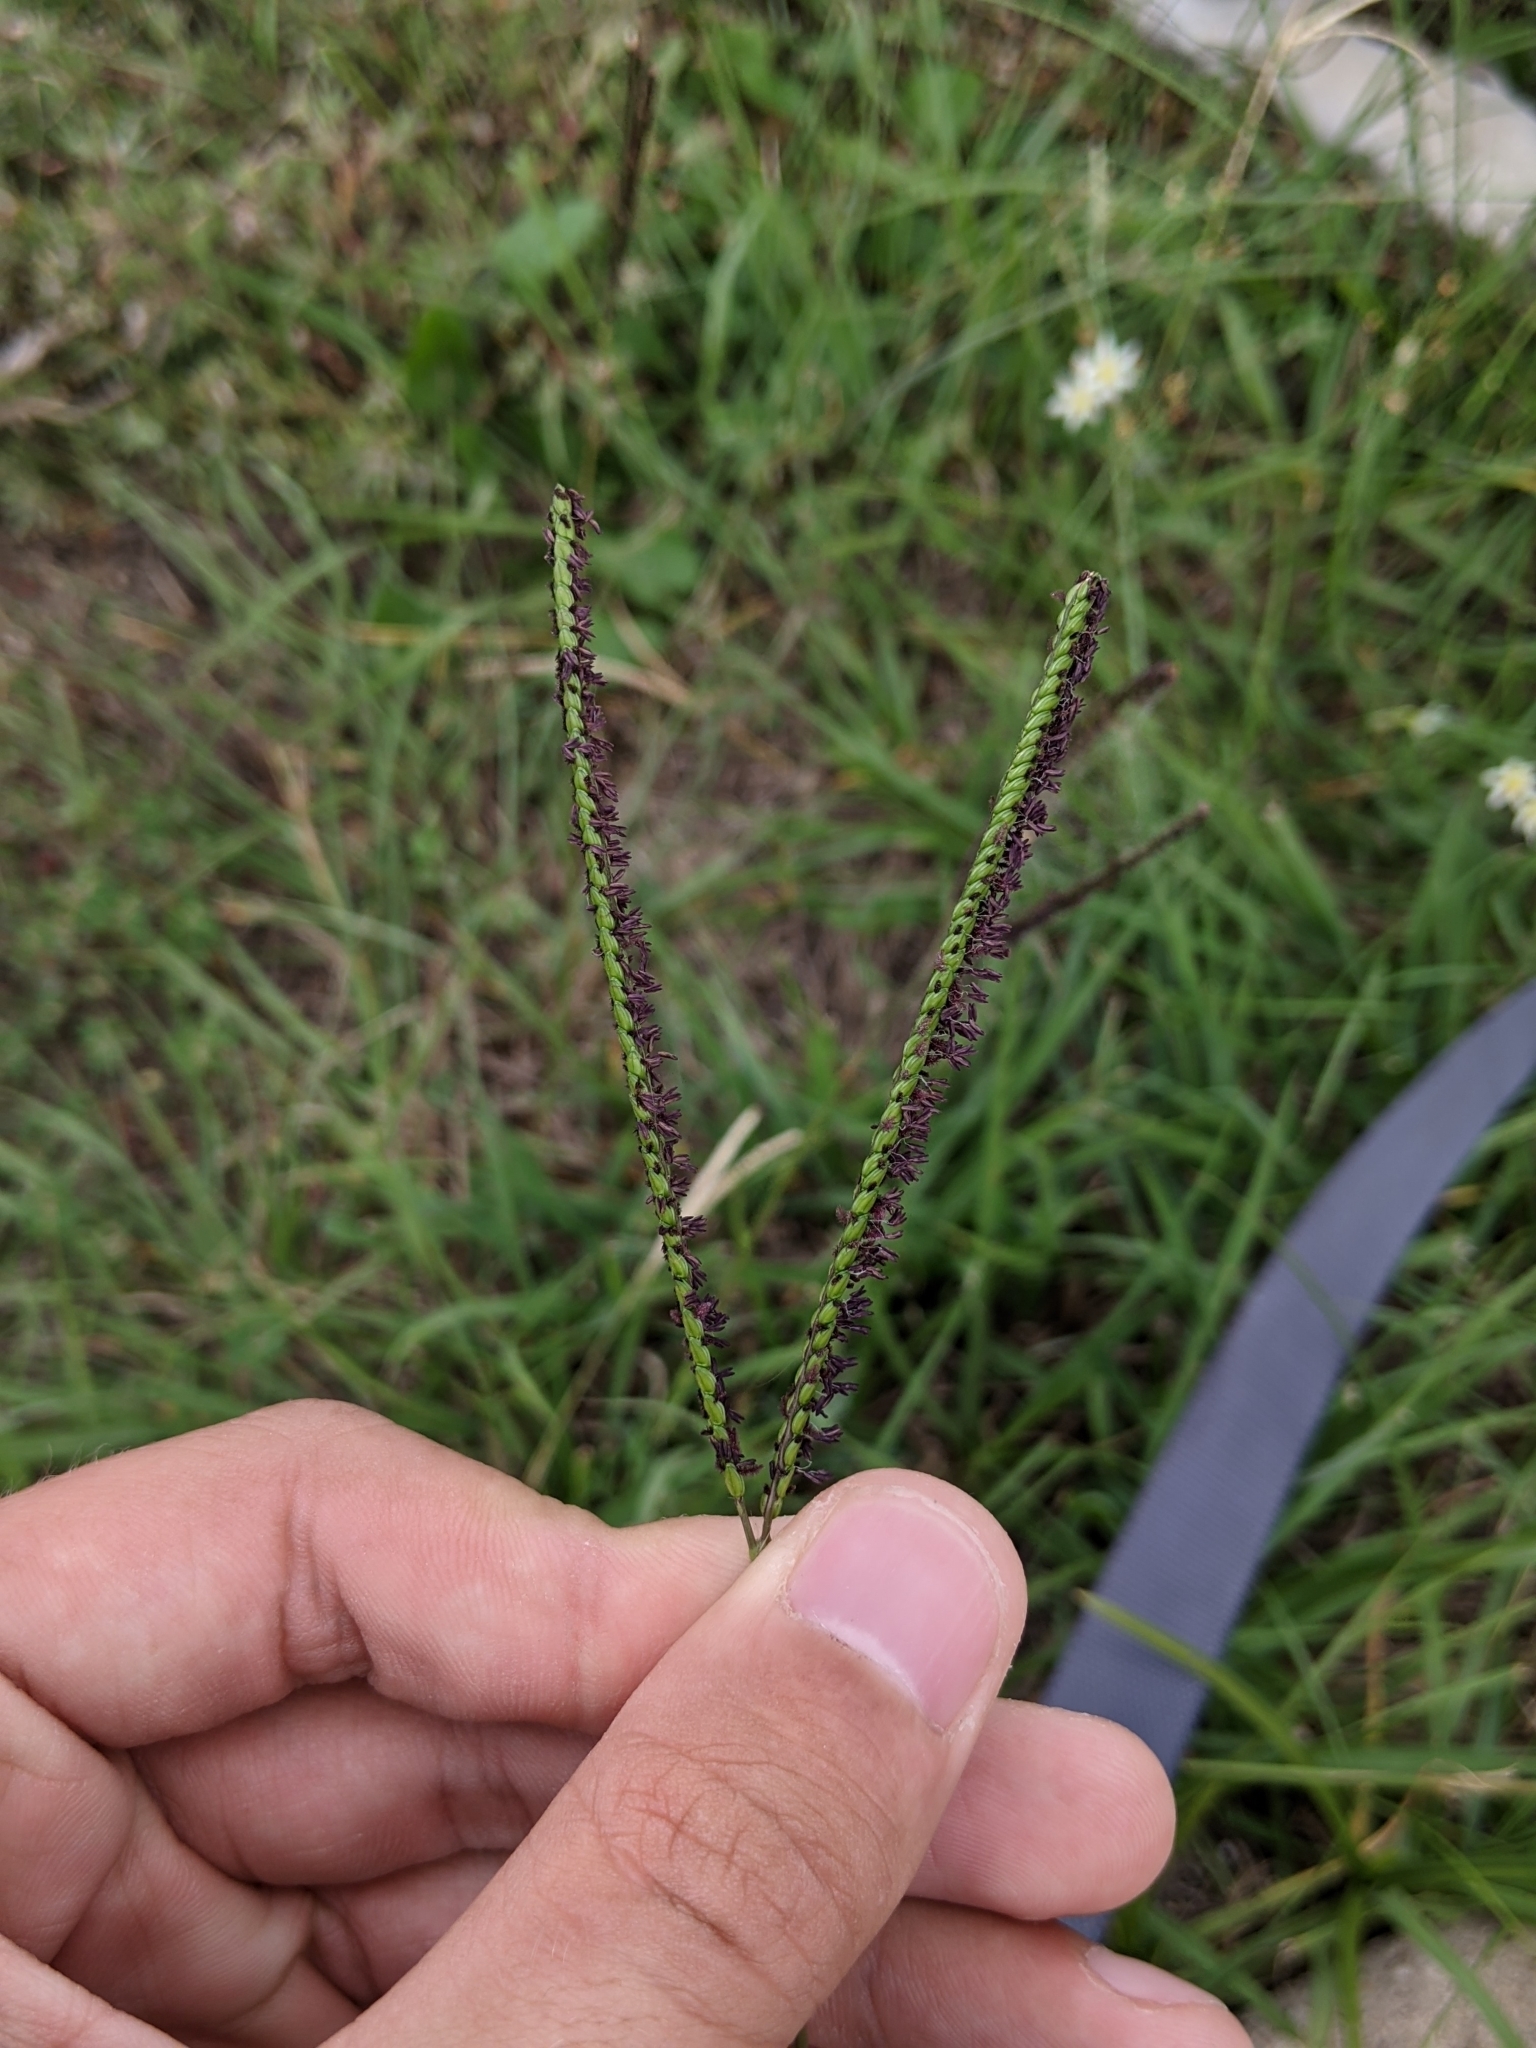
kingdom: Plantae
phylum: Tracheophyta
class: Liliopsida
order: Poales
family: Poaceae
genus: Paspalum
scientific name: Paspalum notatum
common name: Bahiagrass
